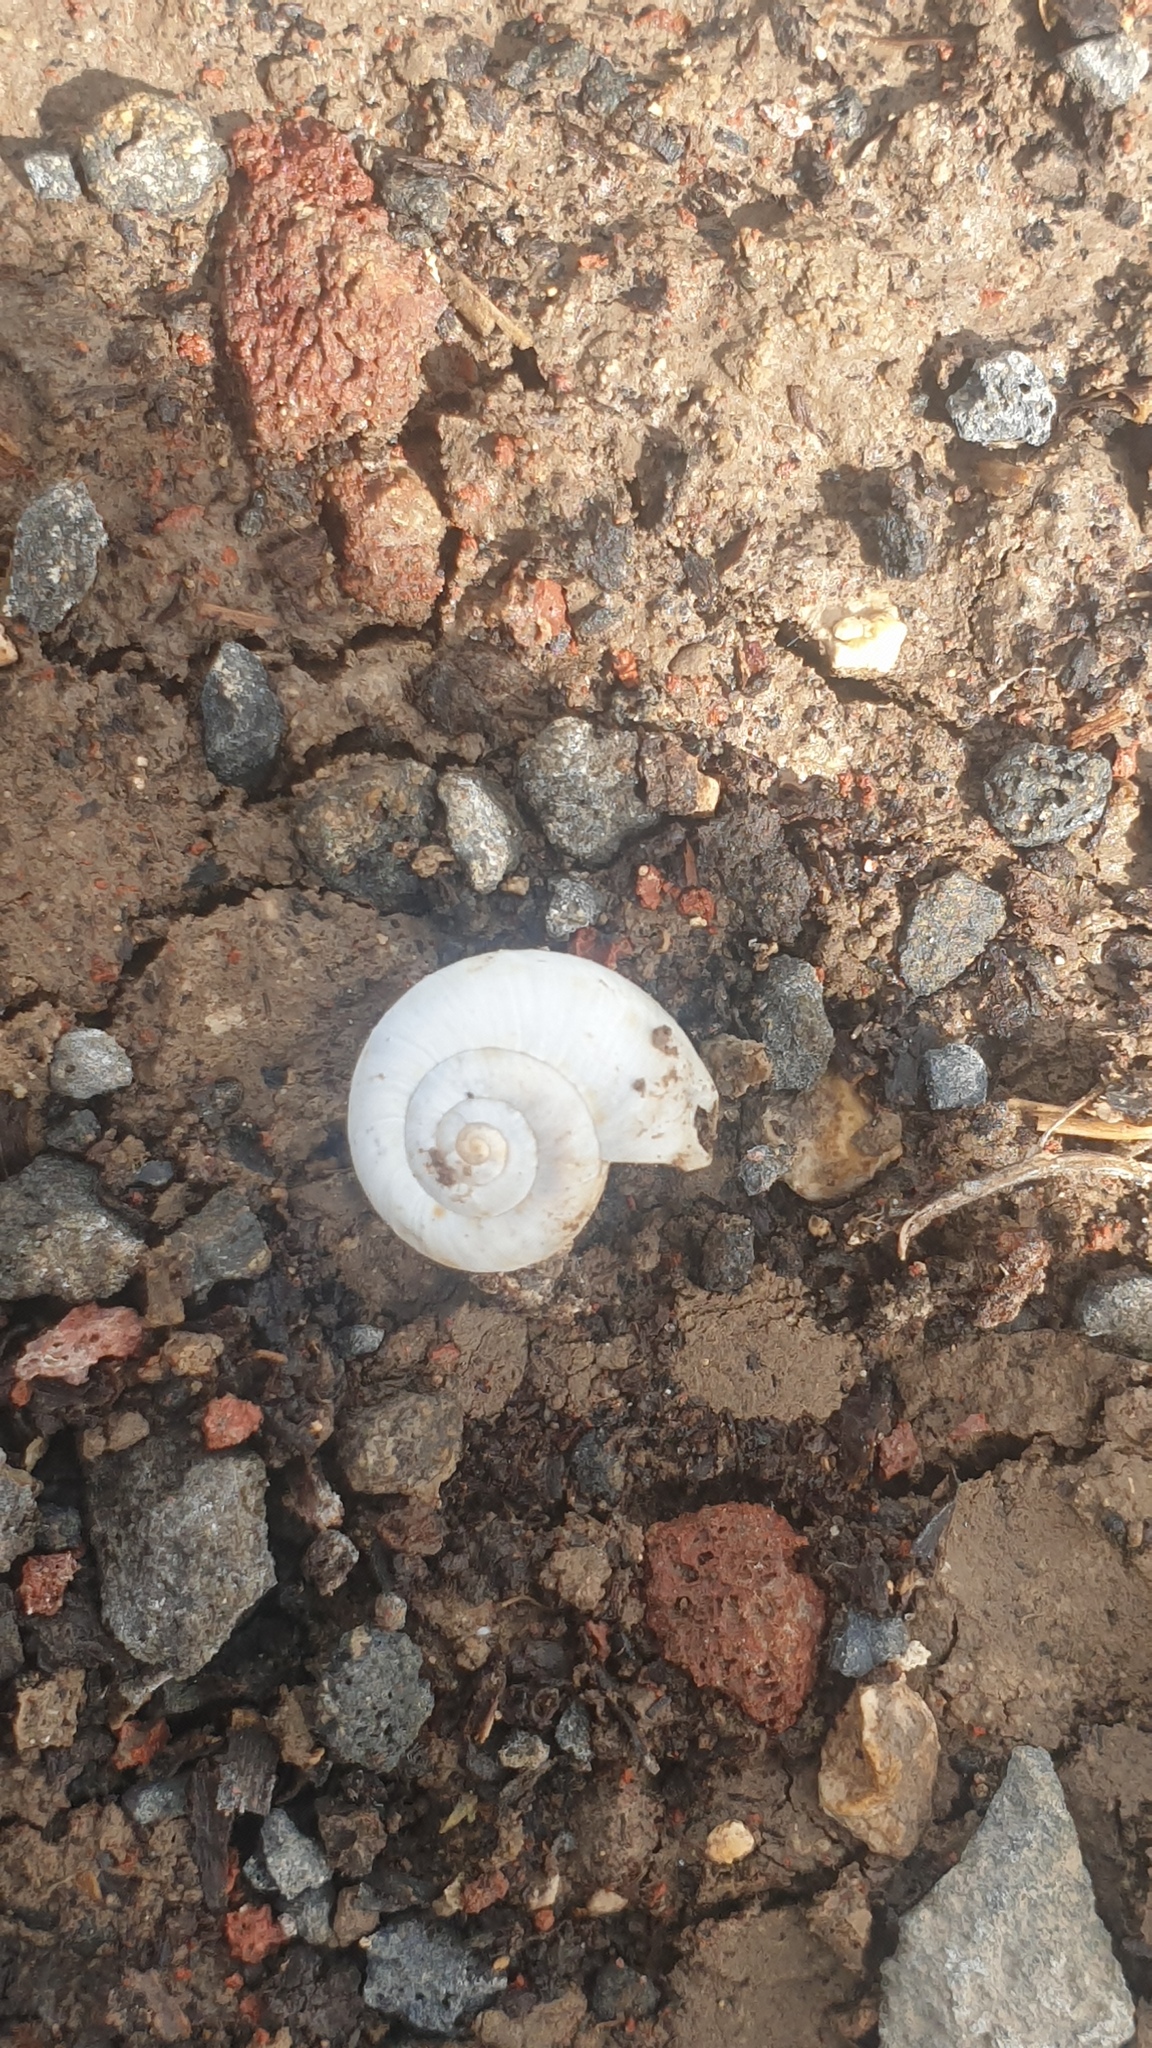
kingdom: Animalia
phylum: Mollusca
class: Gastropoda
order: Stylommatophora
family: Geomitridae
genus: Xeropicta
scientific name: Xeropicta derbentina
